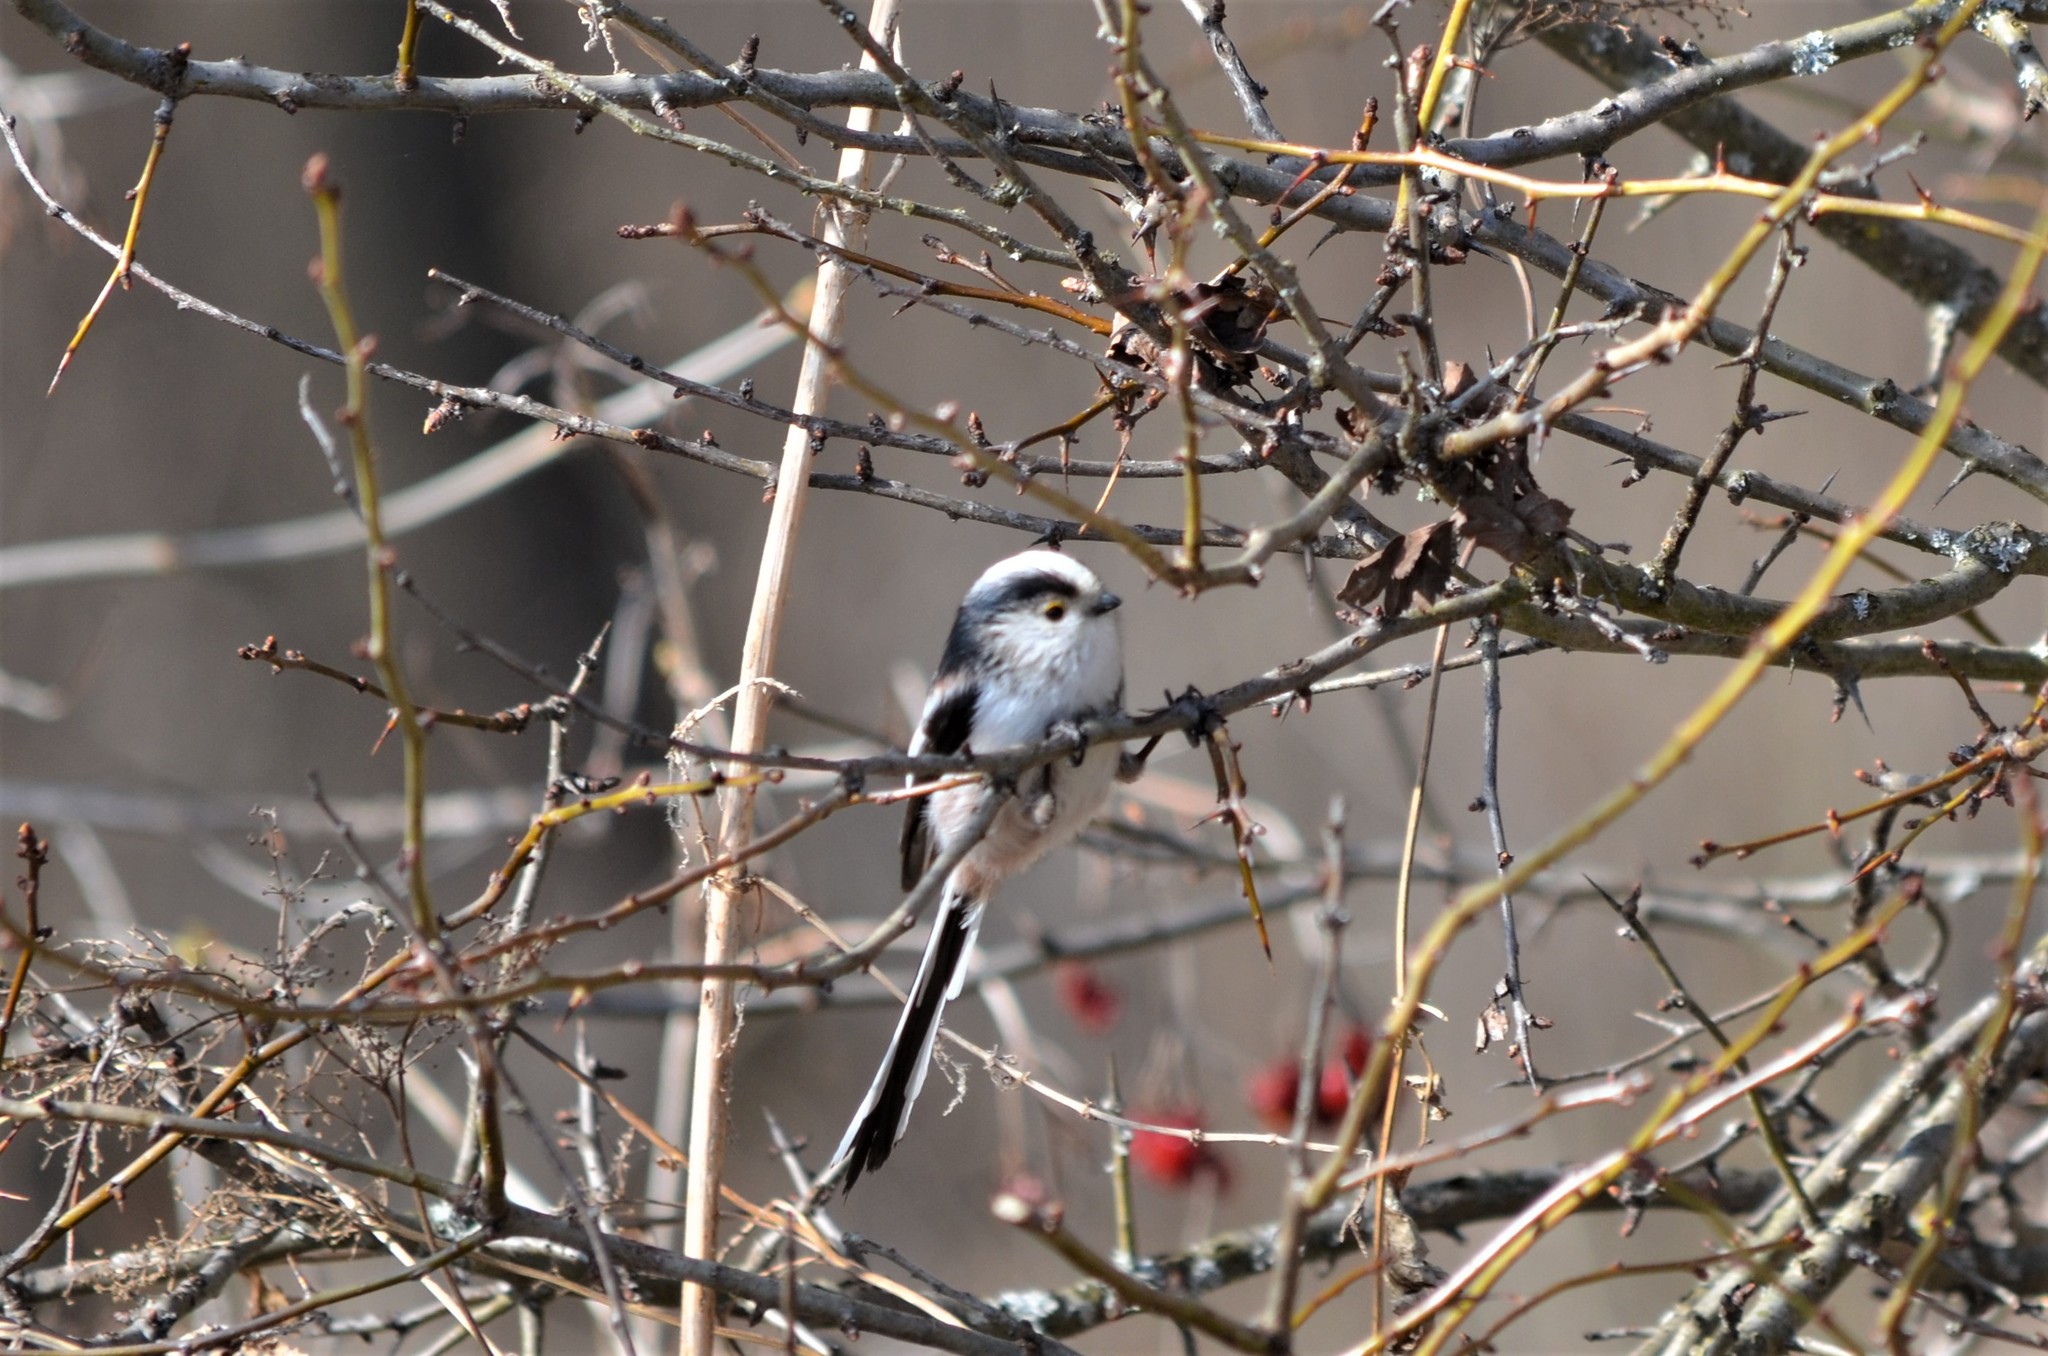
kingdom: Animalia
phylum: Chordata
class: Aves
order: Passeriformes
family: Aegithalidae
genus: Aegithalos
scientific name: Aegithalos caudatus
